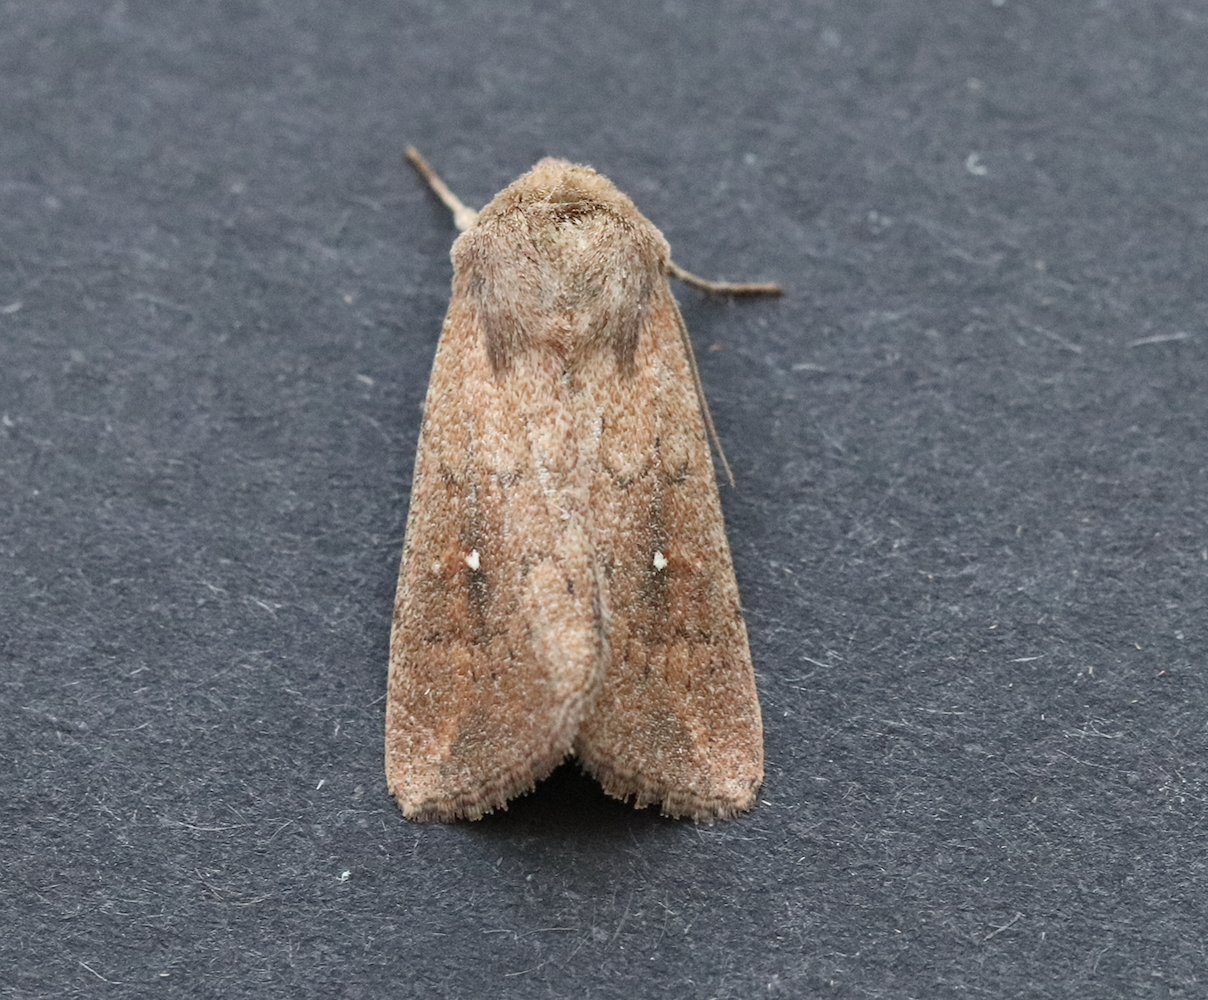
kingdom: Animalia
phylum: Arthropoda
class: Insecta
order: Lepidoptera
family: Noctuidae
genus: Mythimna
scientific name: Mythimna albipuncta
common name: White-point
